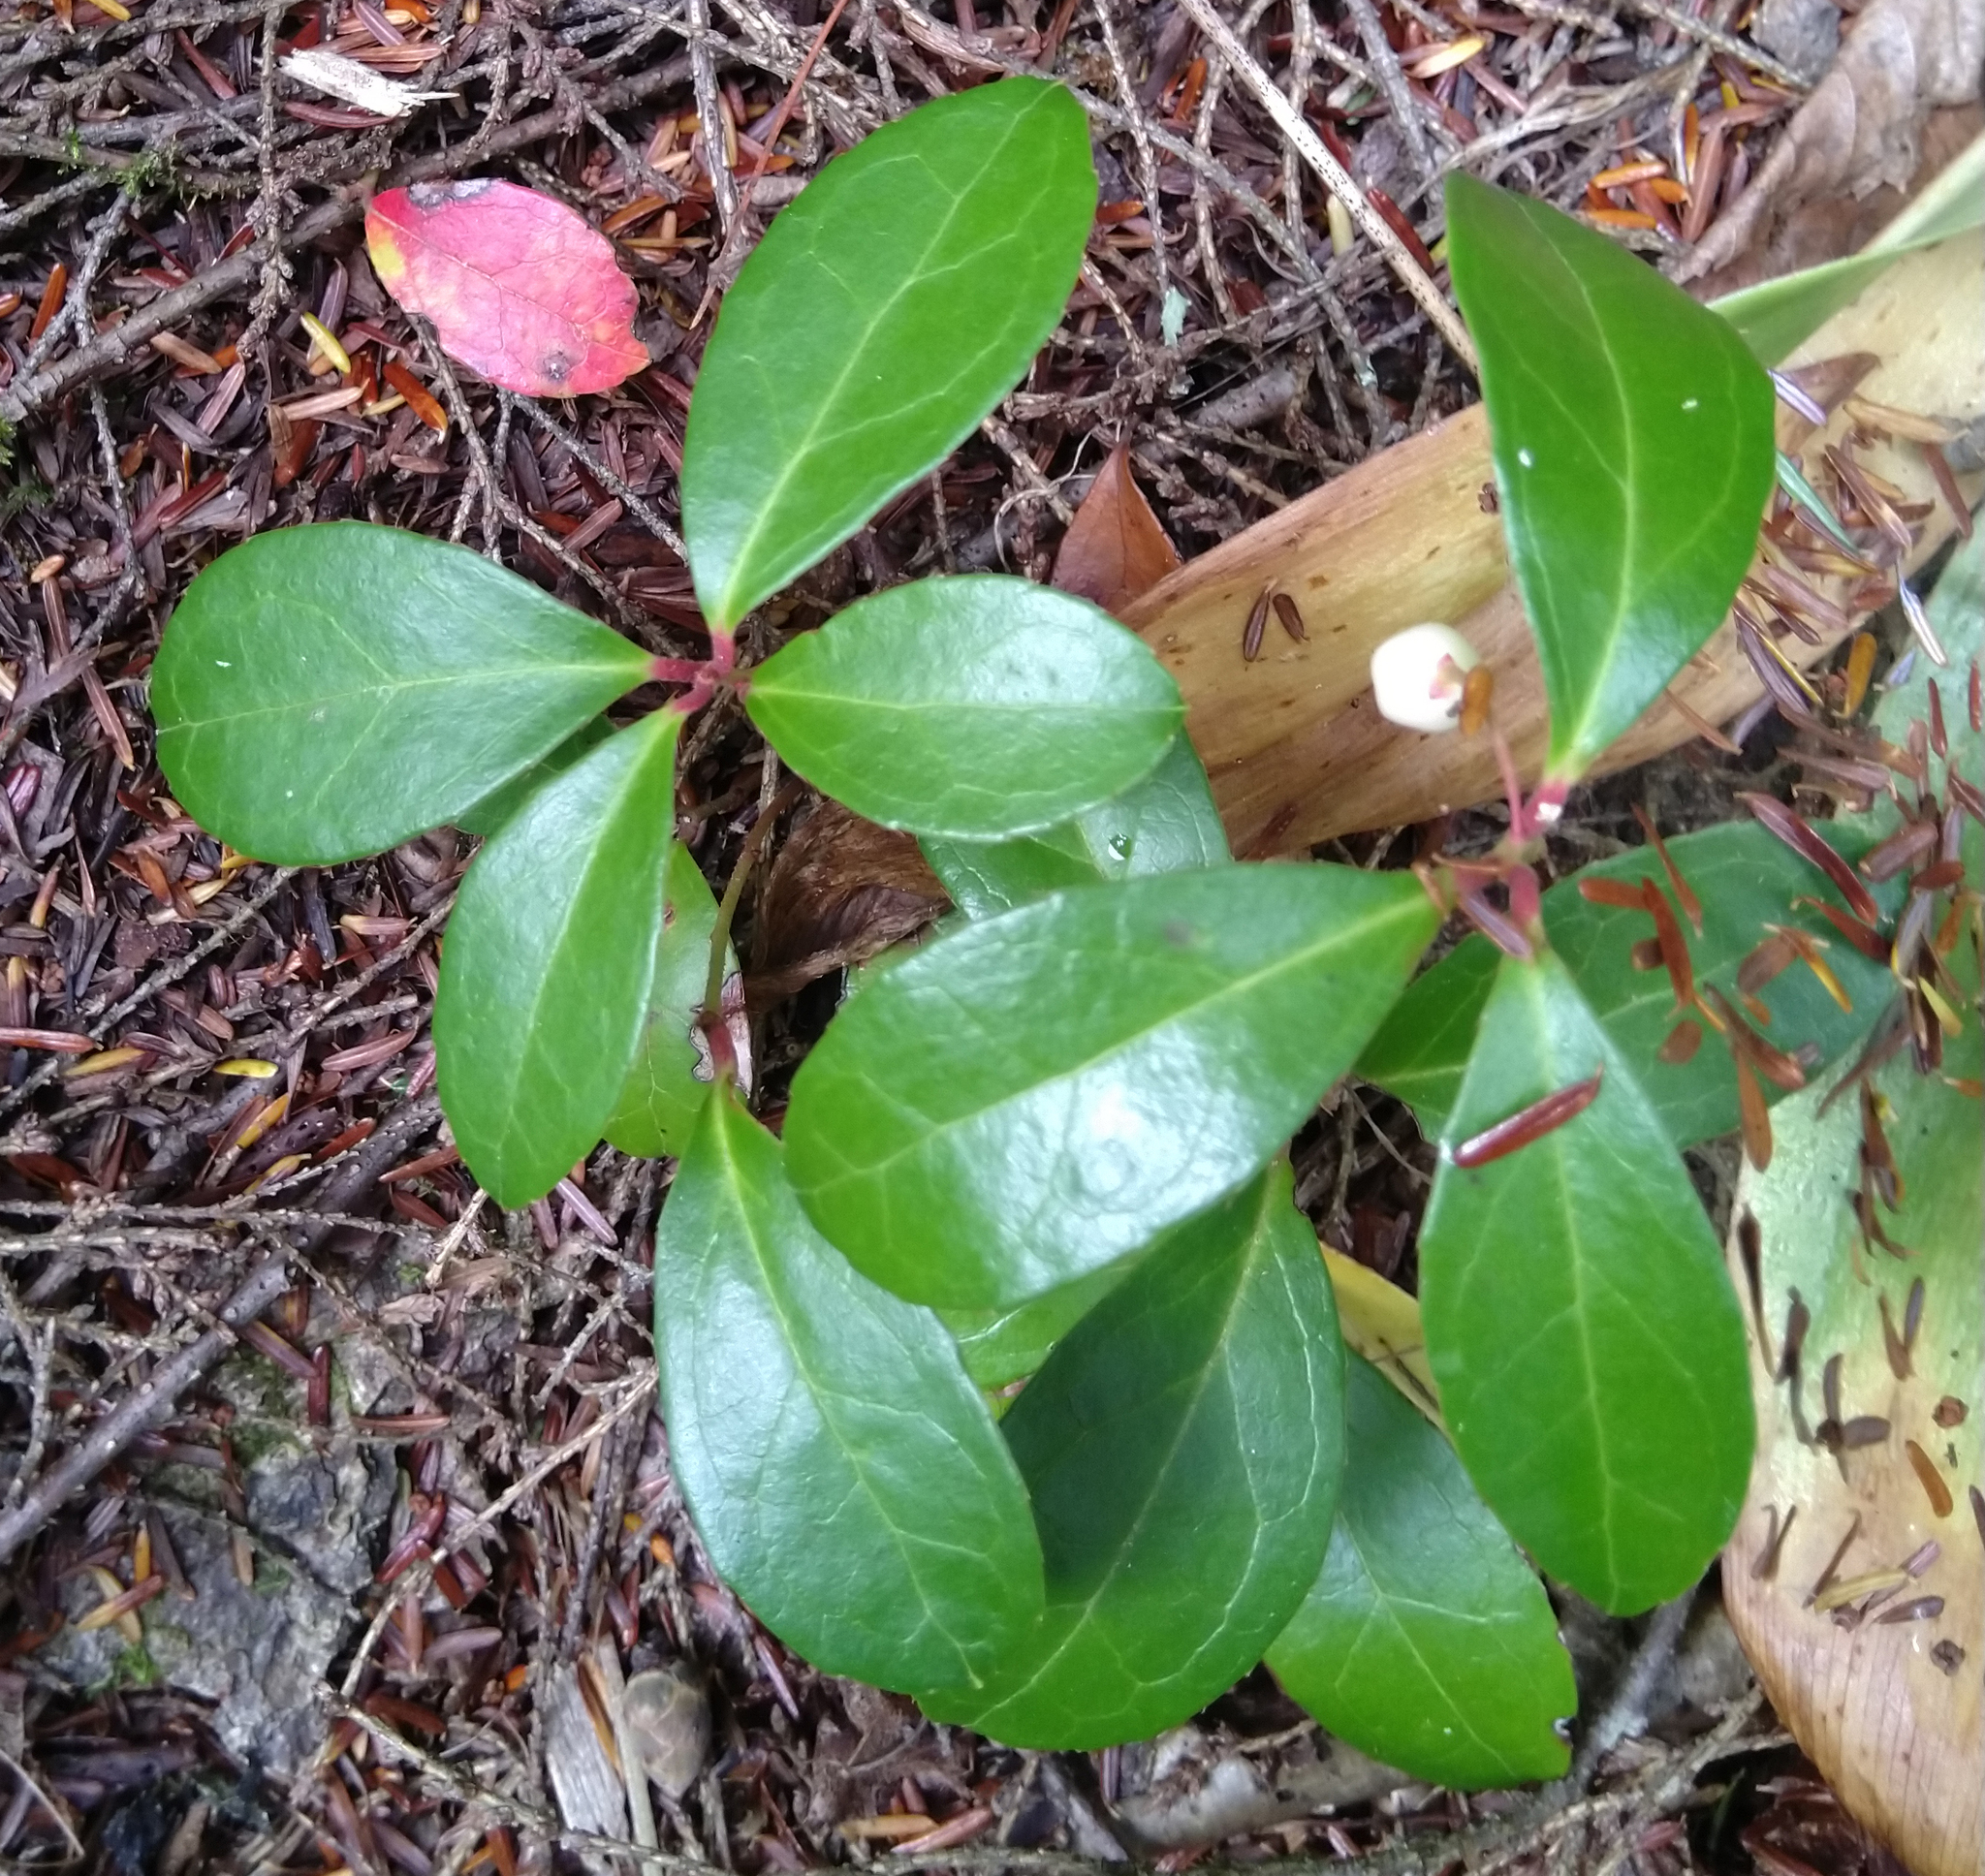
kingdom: Plantae
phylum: Tracheophyta
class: Magnoliopsida
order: Ericales
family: Ericaceae
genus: Gaultheria
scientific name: Gaultheria procumbens
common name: Checkerberry
